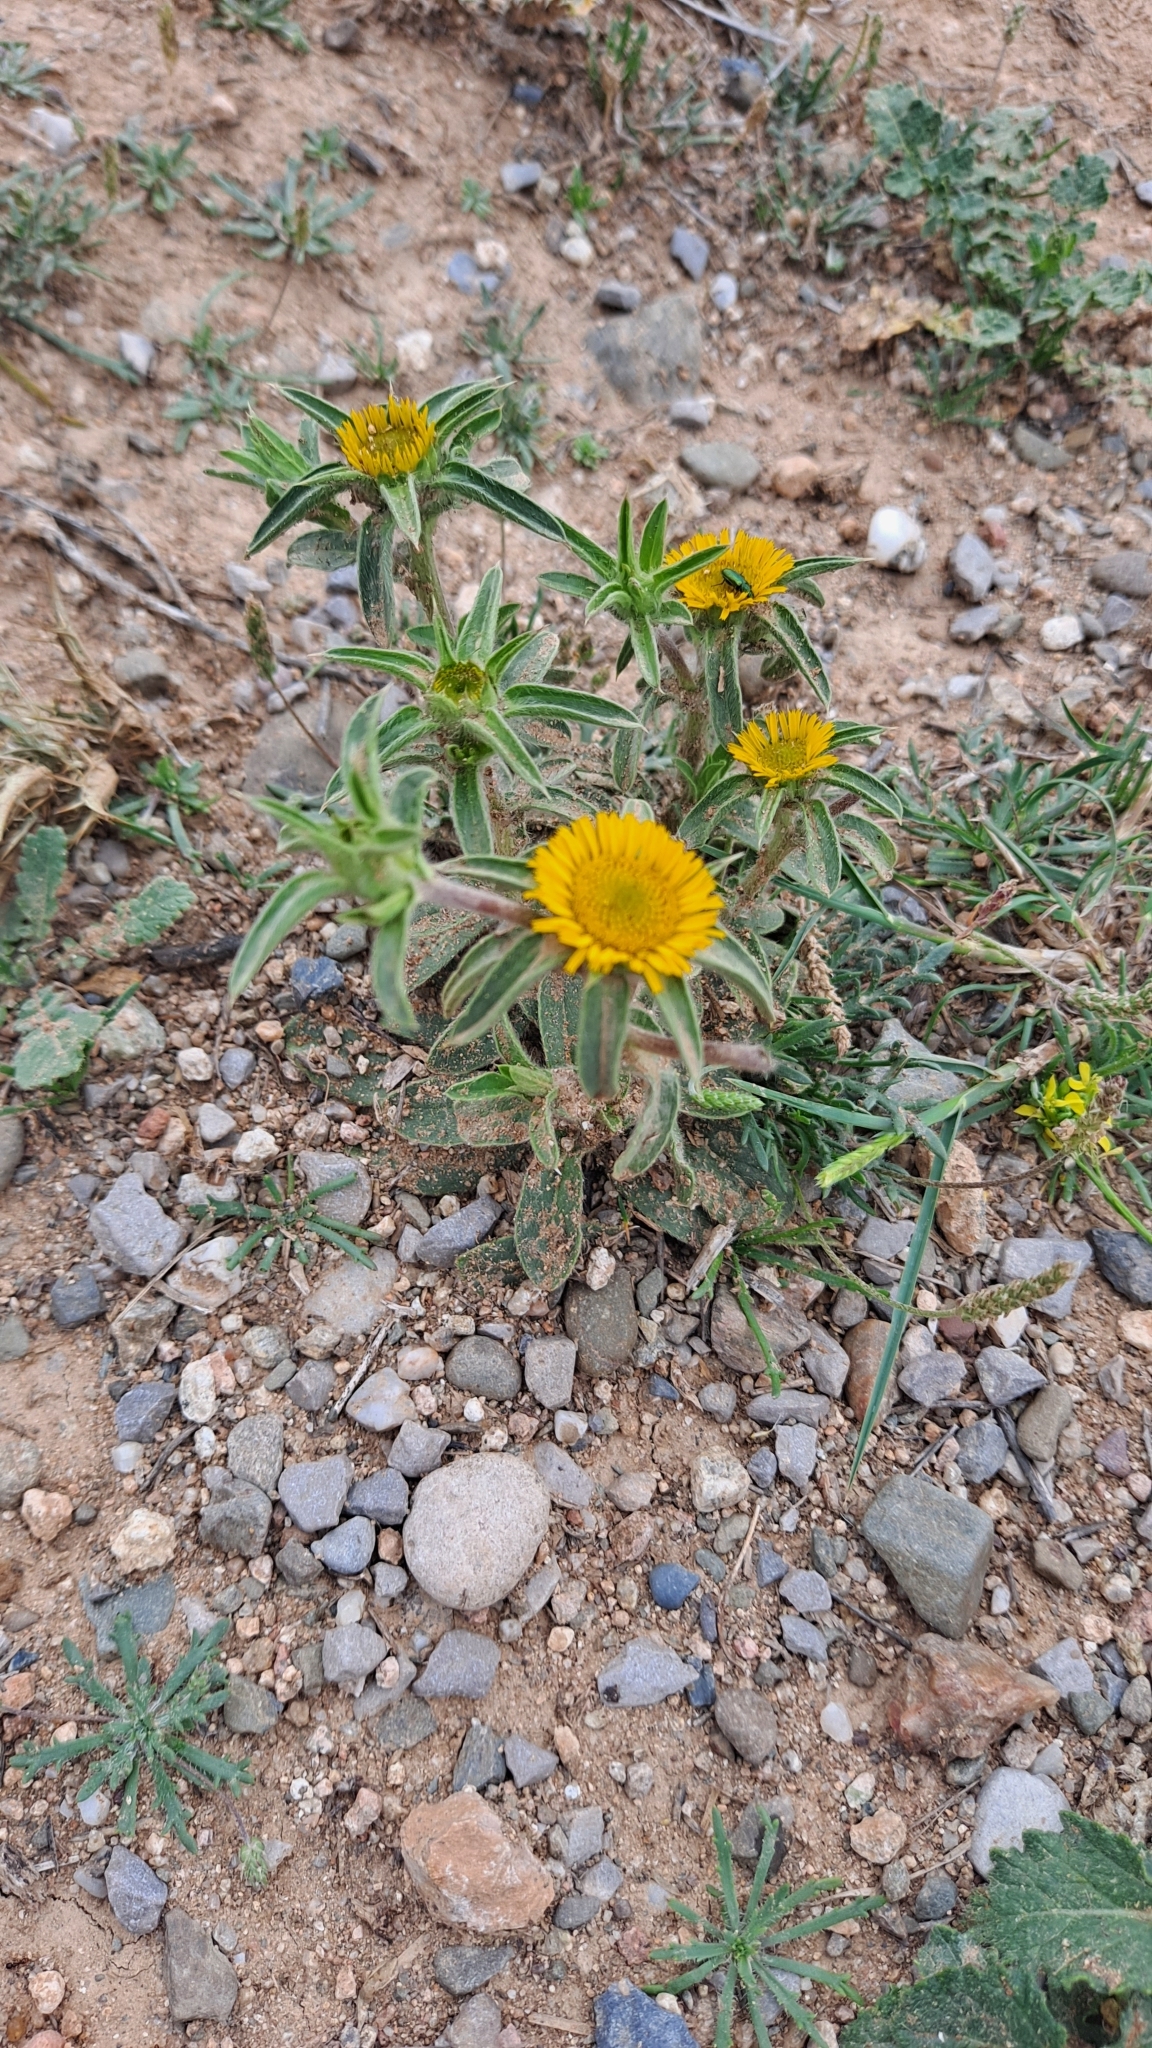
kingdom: Plantae
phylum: Tracheophyta
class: Magnoliopsida
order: Asterales
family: Asteraceae
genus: Pallenis
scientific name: Pallenis spinosa
